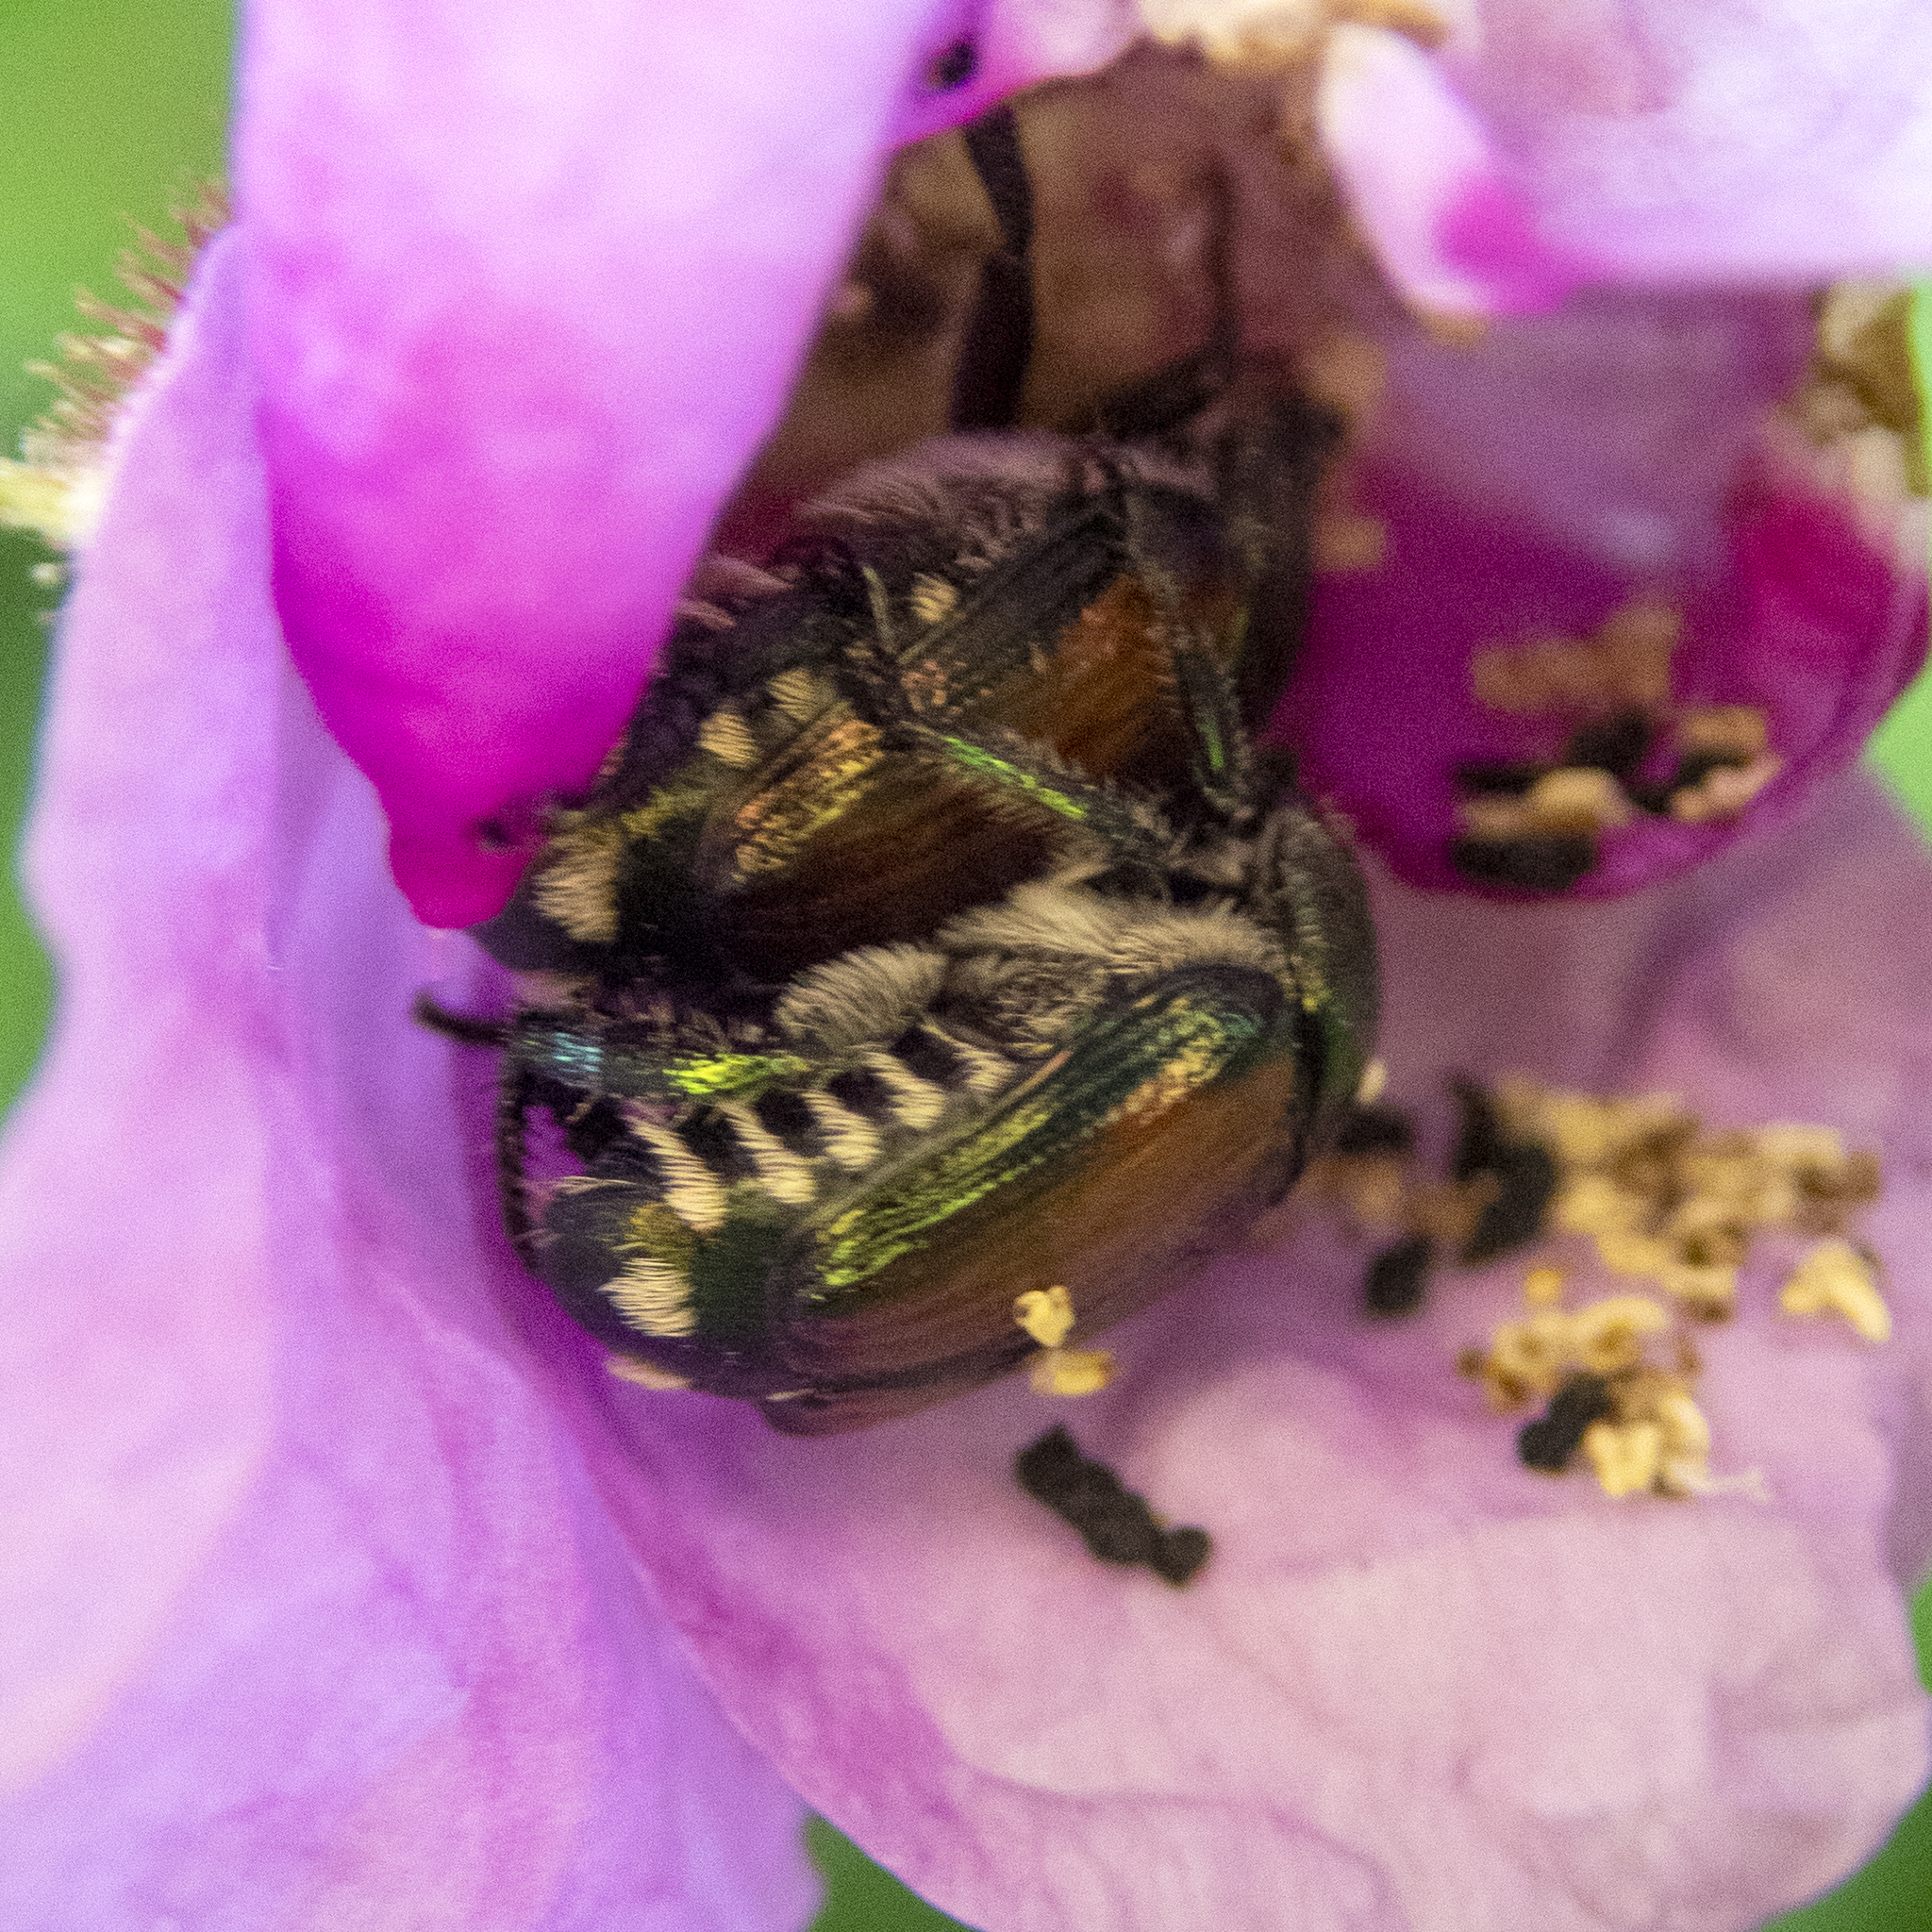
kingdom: Animalia
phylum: Arthropoda
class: Insecta
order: Coleoptera
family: Scarabaeidae
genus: Popillia
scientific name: Popillia japonica
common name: Japanese beetle
